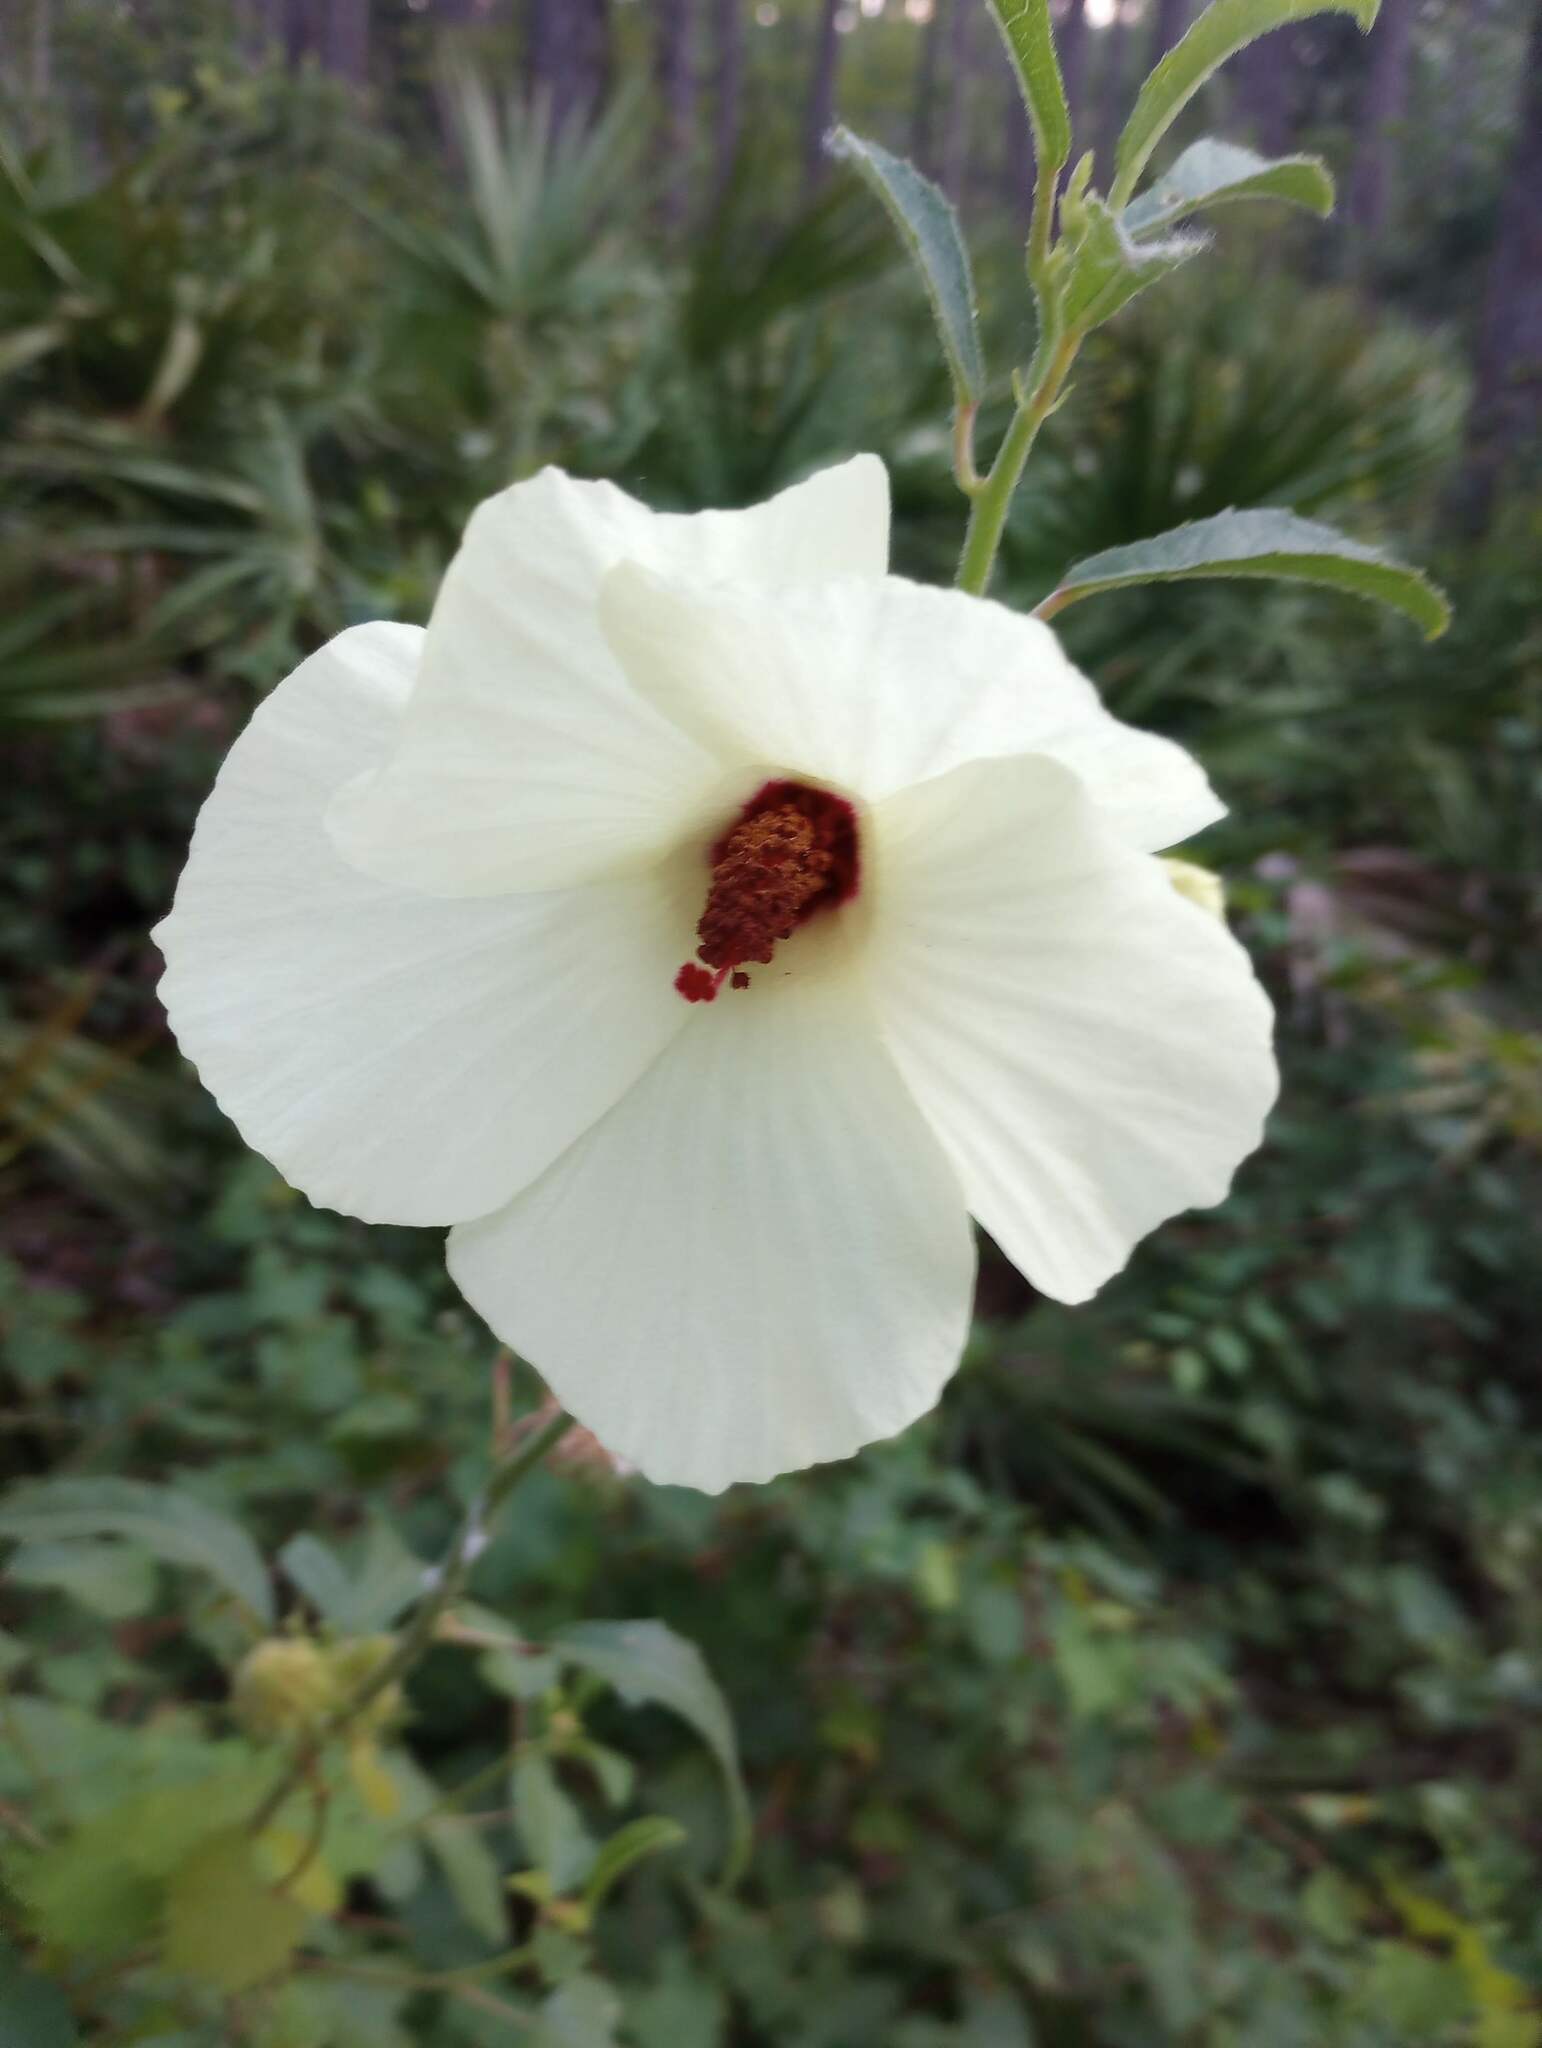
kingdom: Plantae
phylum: Tracheophyta
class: Magnoliopsida
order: Malvales
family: Malvaceae
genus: Hibiscus
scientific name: Hibiscus aculeatus
